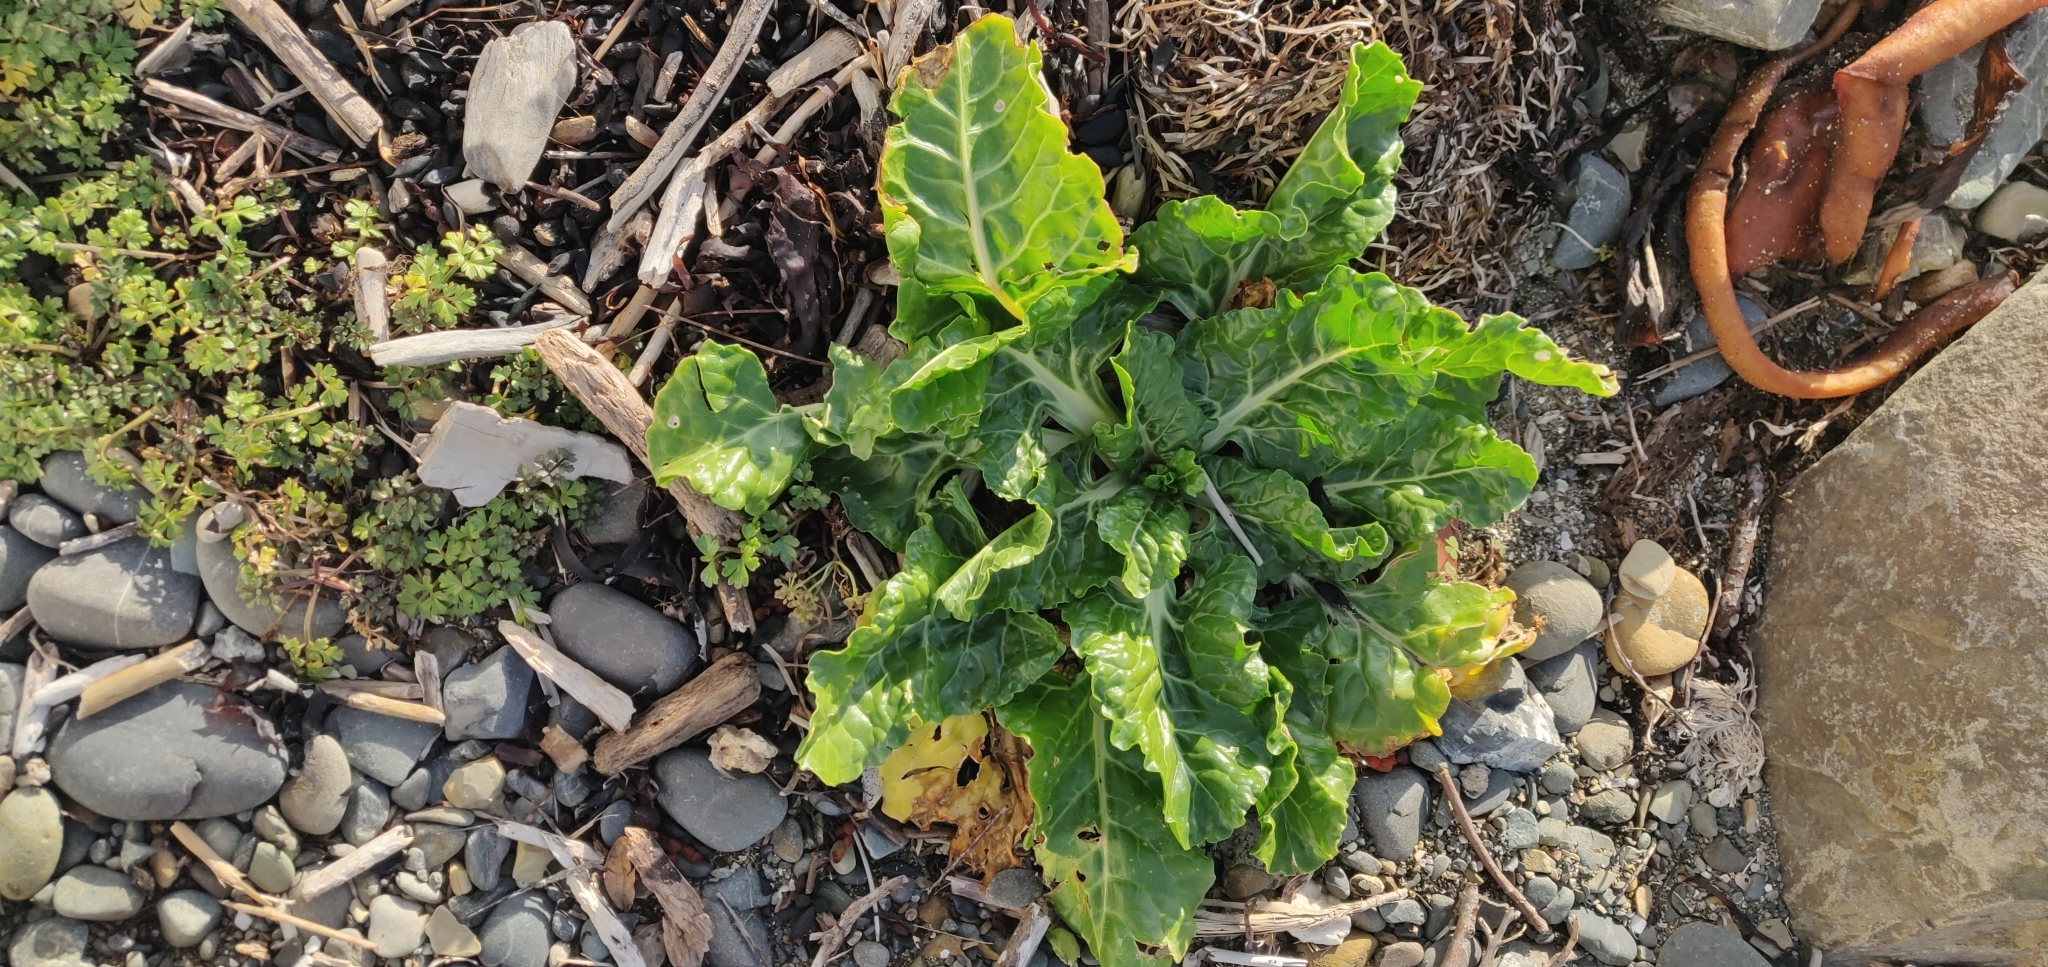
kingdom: Plantae
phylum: Tracheophyta
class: Magnoliopsida
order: Caryophyllales
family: Amaranthaceae
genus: Beta
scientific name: Beta vulgaris
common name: Beet
